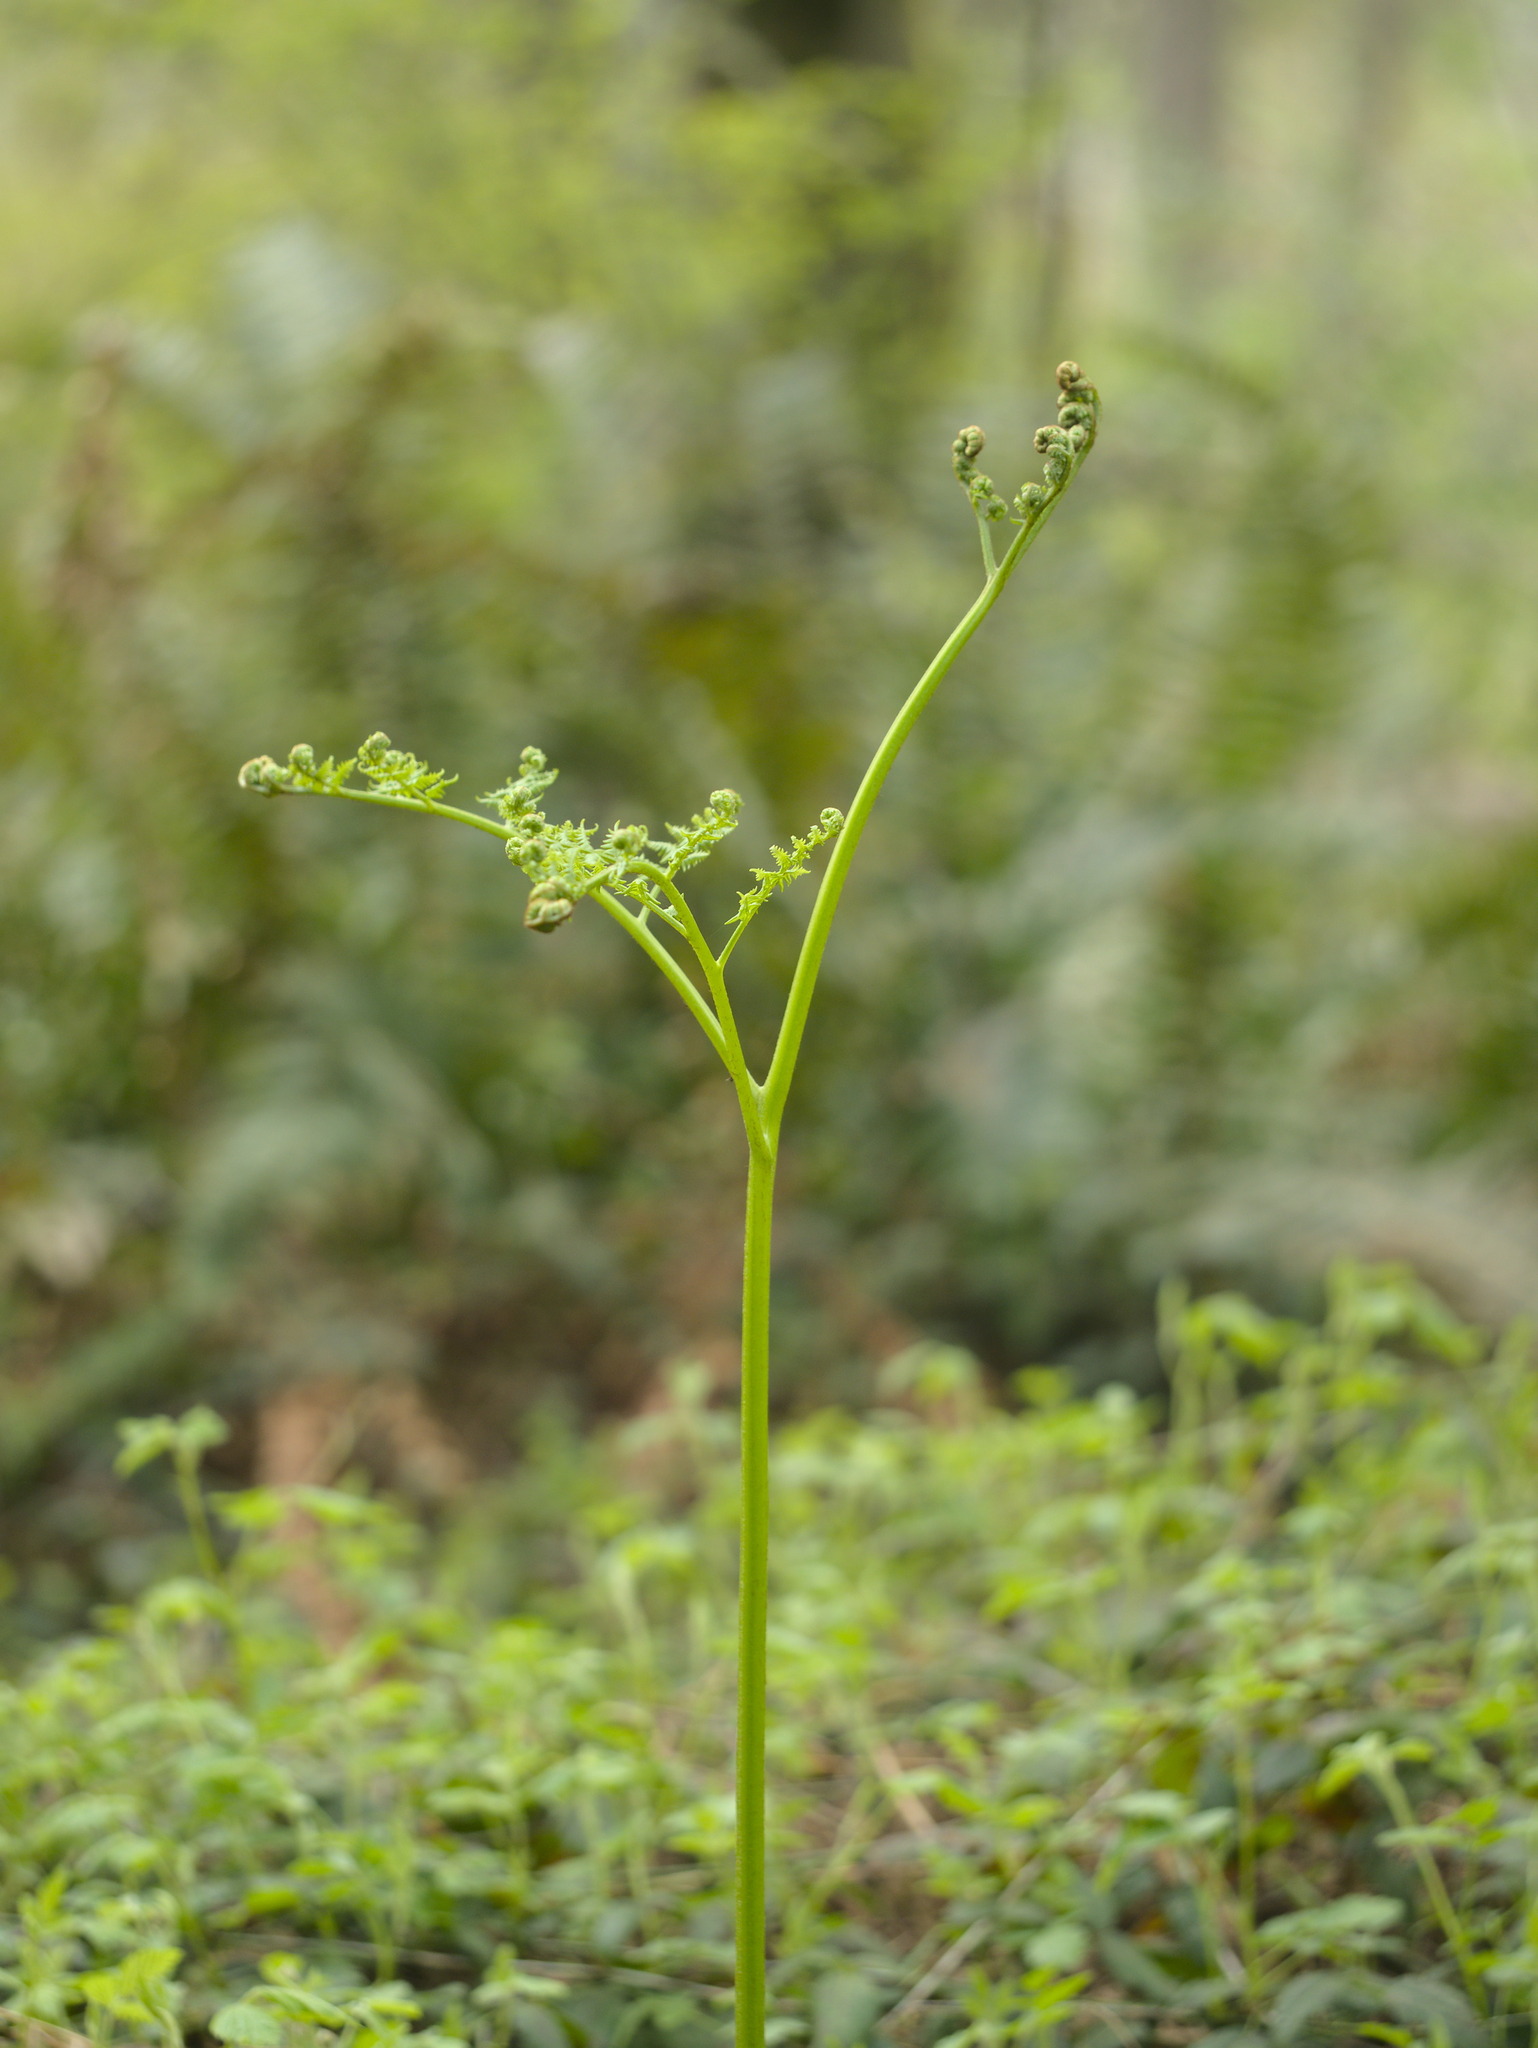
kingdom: Plantae
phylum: Tracheophyta
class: Polypodiopsida
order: Polypodiales
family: Dennstaedtiaceae
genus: Pteridium
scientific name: Pteridium aquilinum
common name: Bracken
